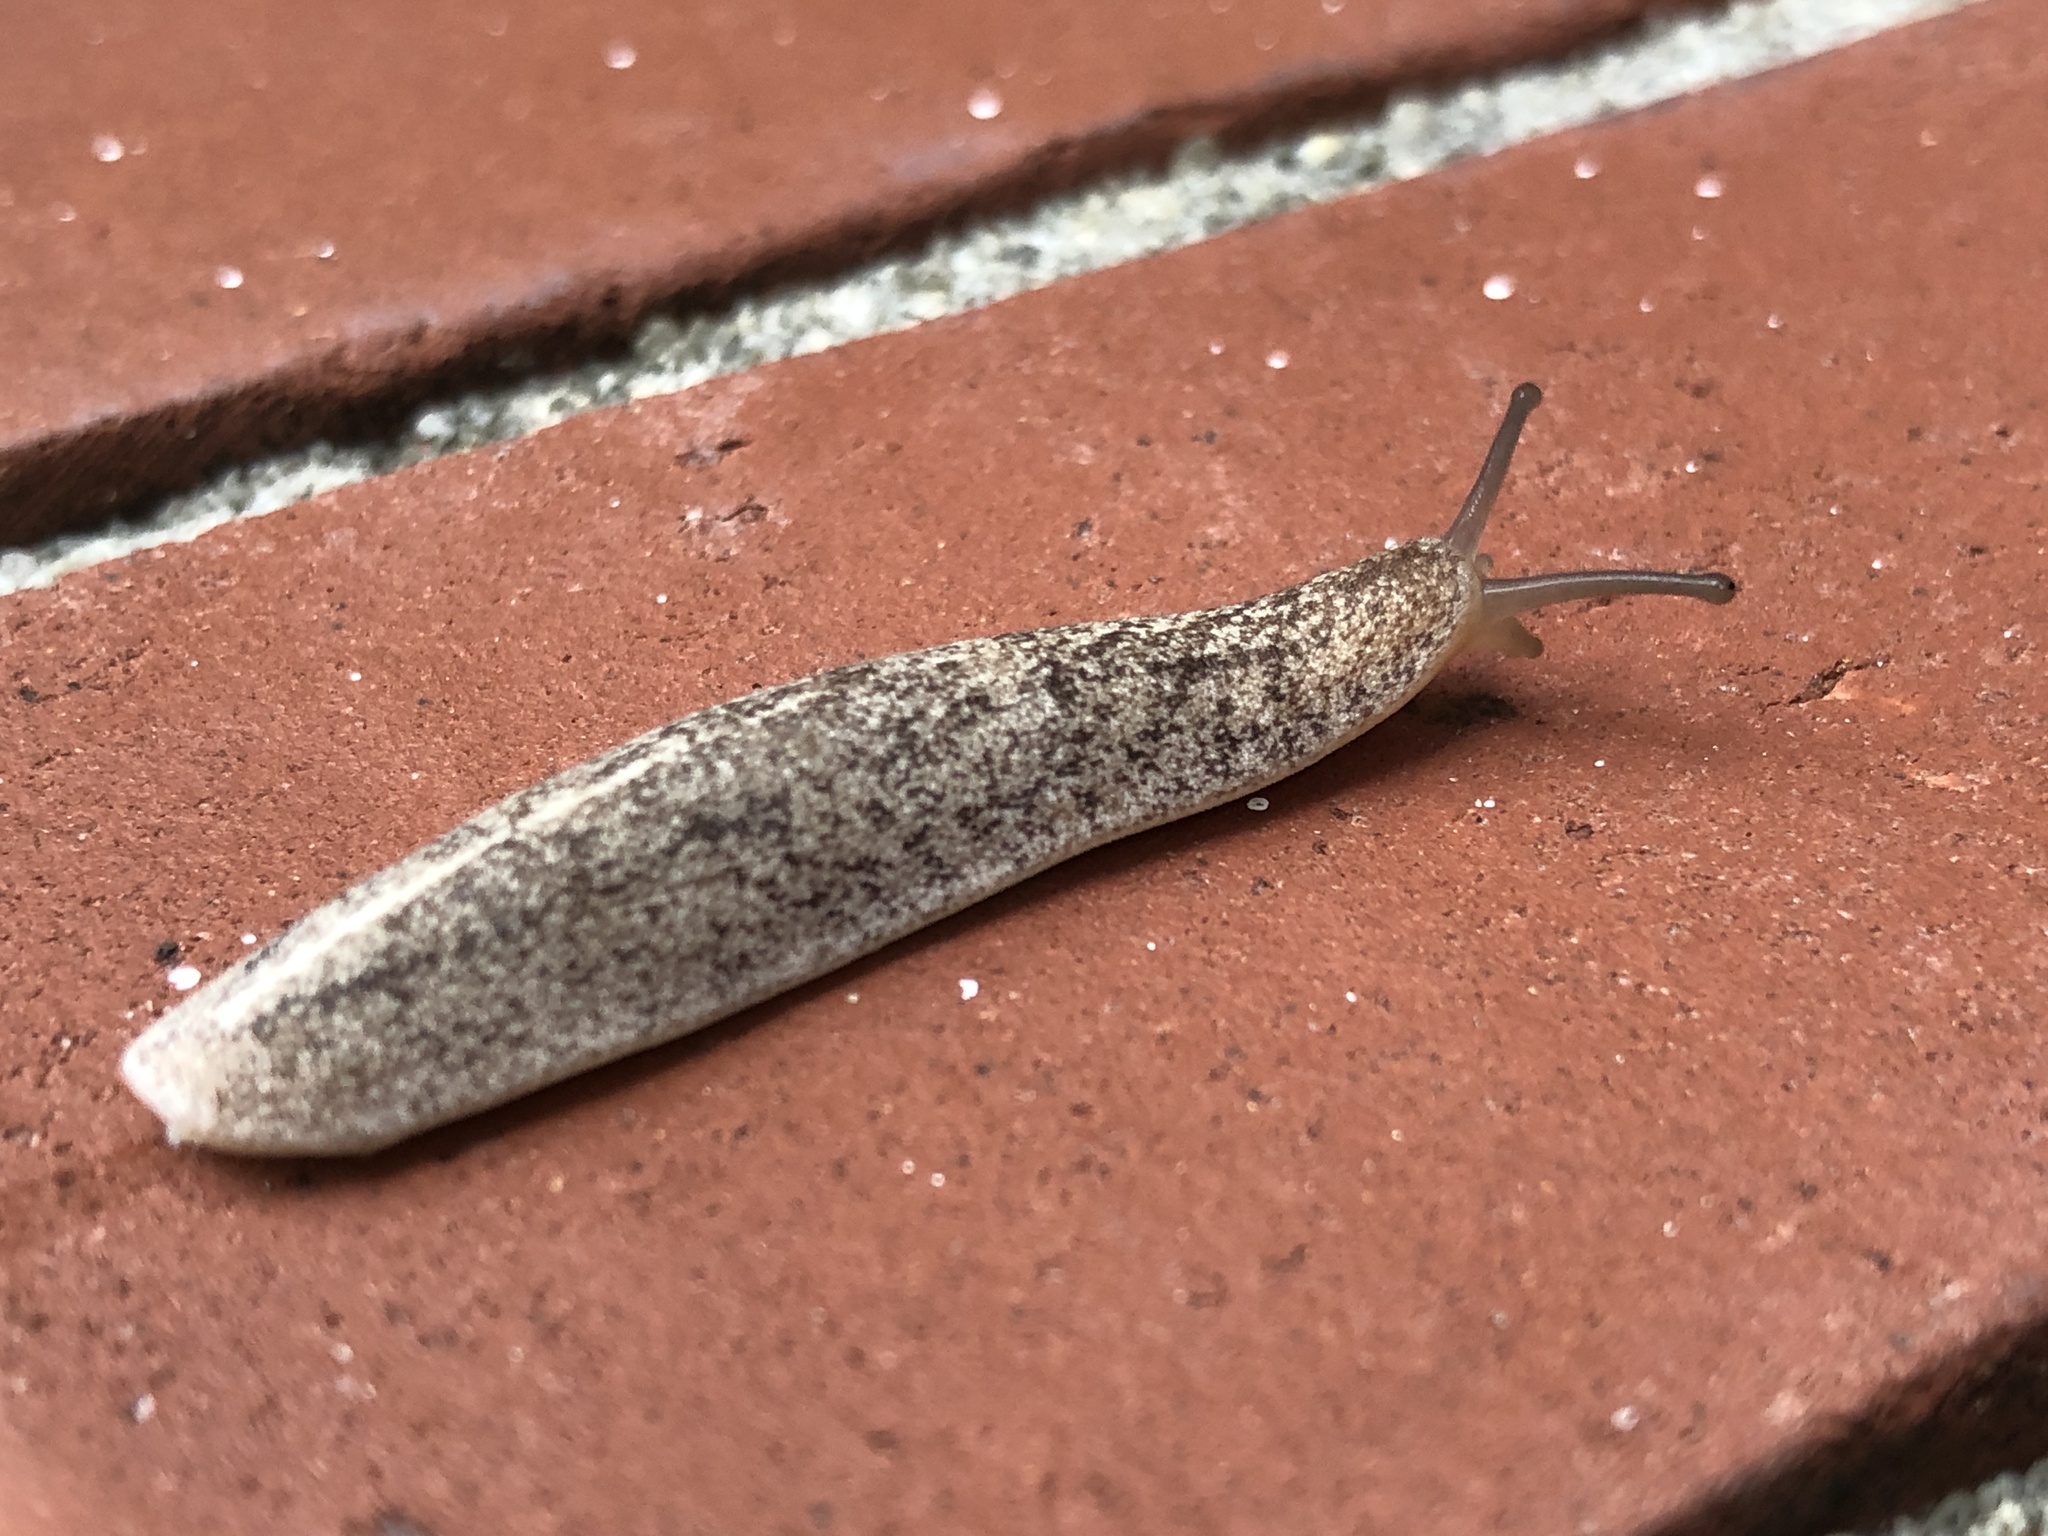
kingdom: Animalia
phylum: Mollusca
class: Gastropoda
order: Systellommatophora
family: Veronicellidae
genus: Leidyula
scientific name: Leidyula floridana
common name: Florida leatherleaf
